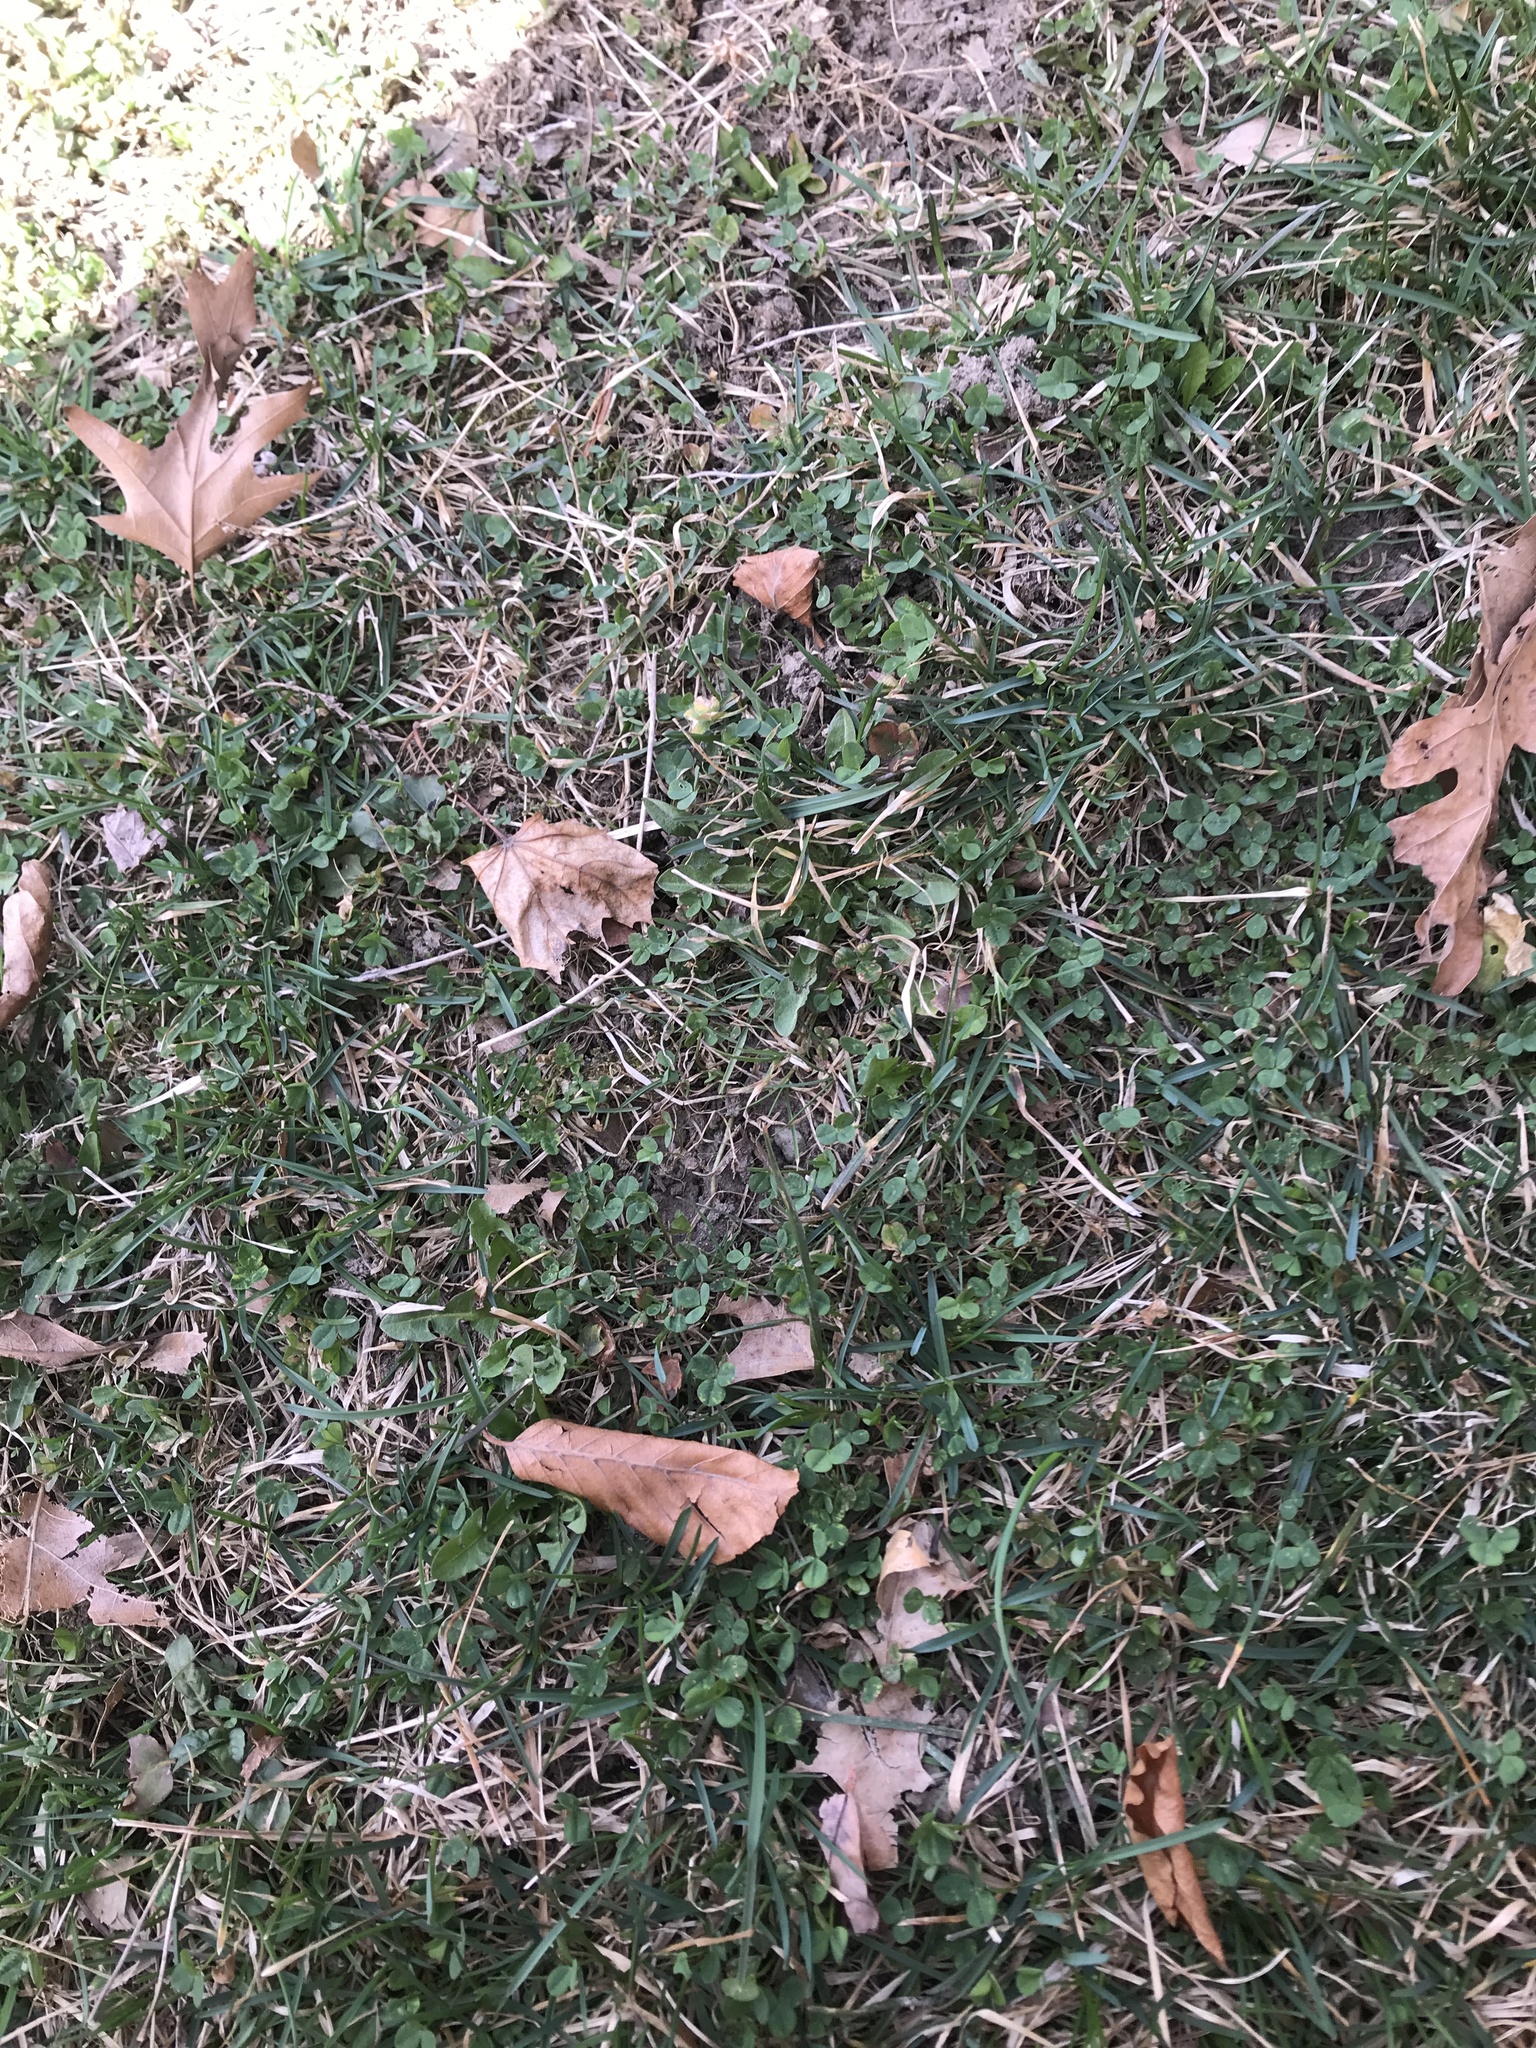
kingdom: Plantae
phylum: Tracheophyta
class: Magnoliopsida
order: Fabales
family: Fabaceae
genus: Trifolium
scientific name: Trifolium repens
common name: White clover
